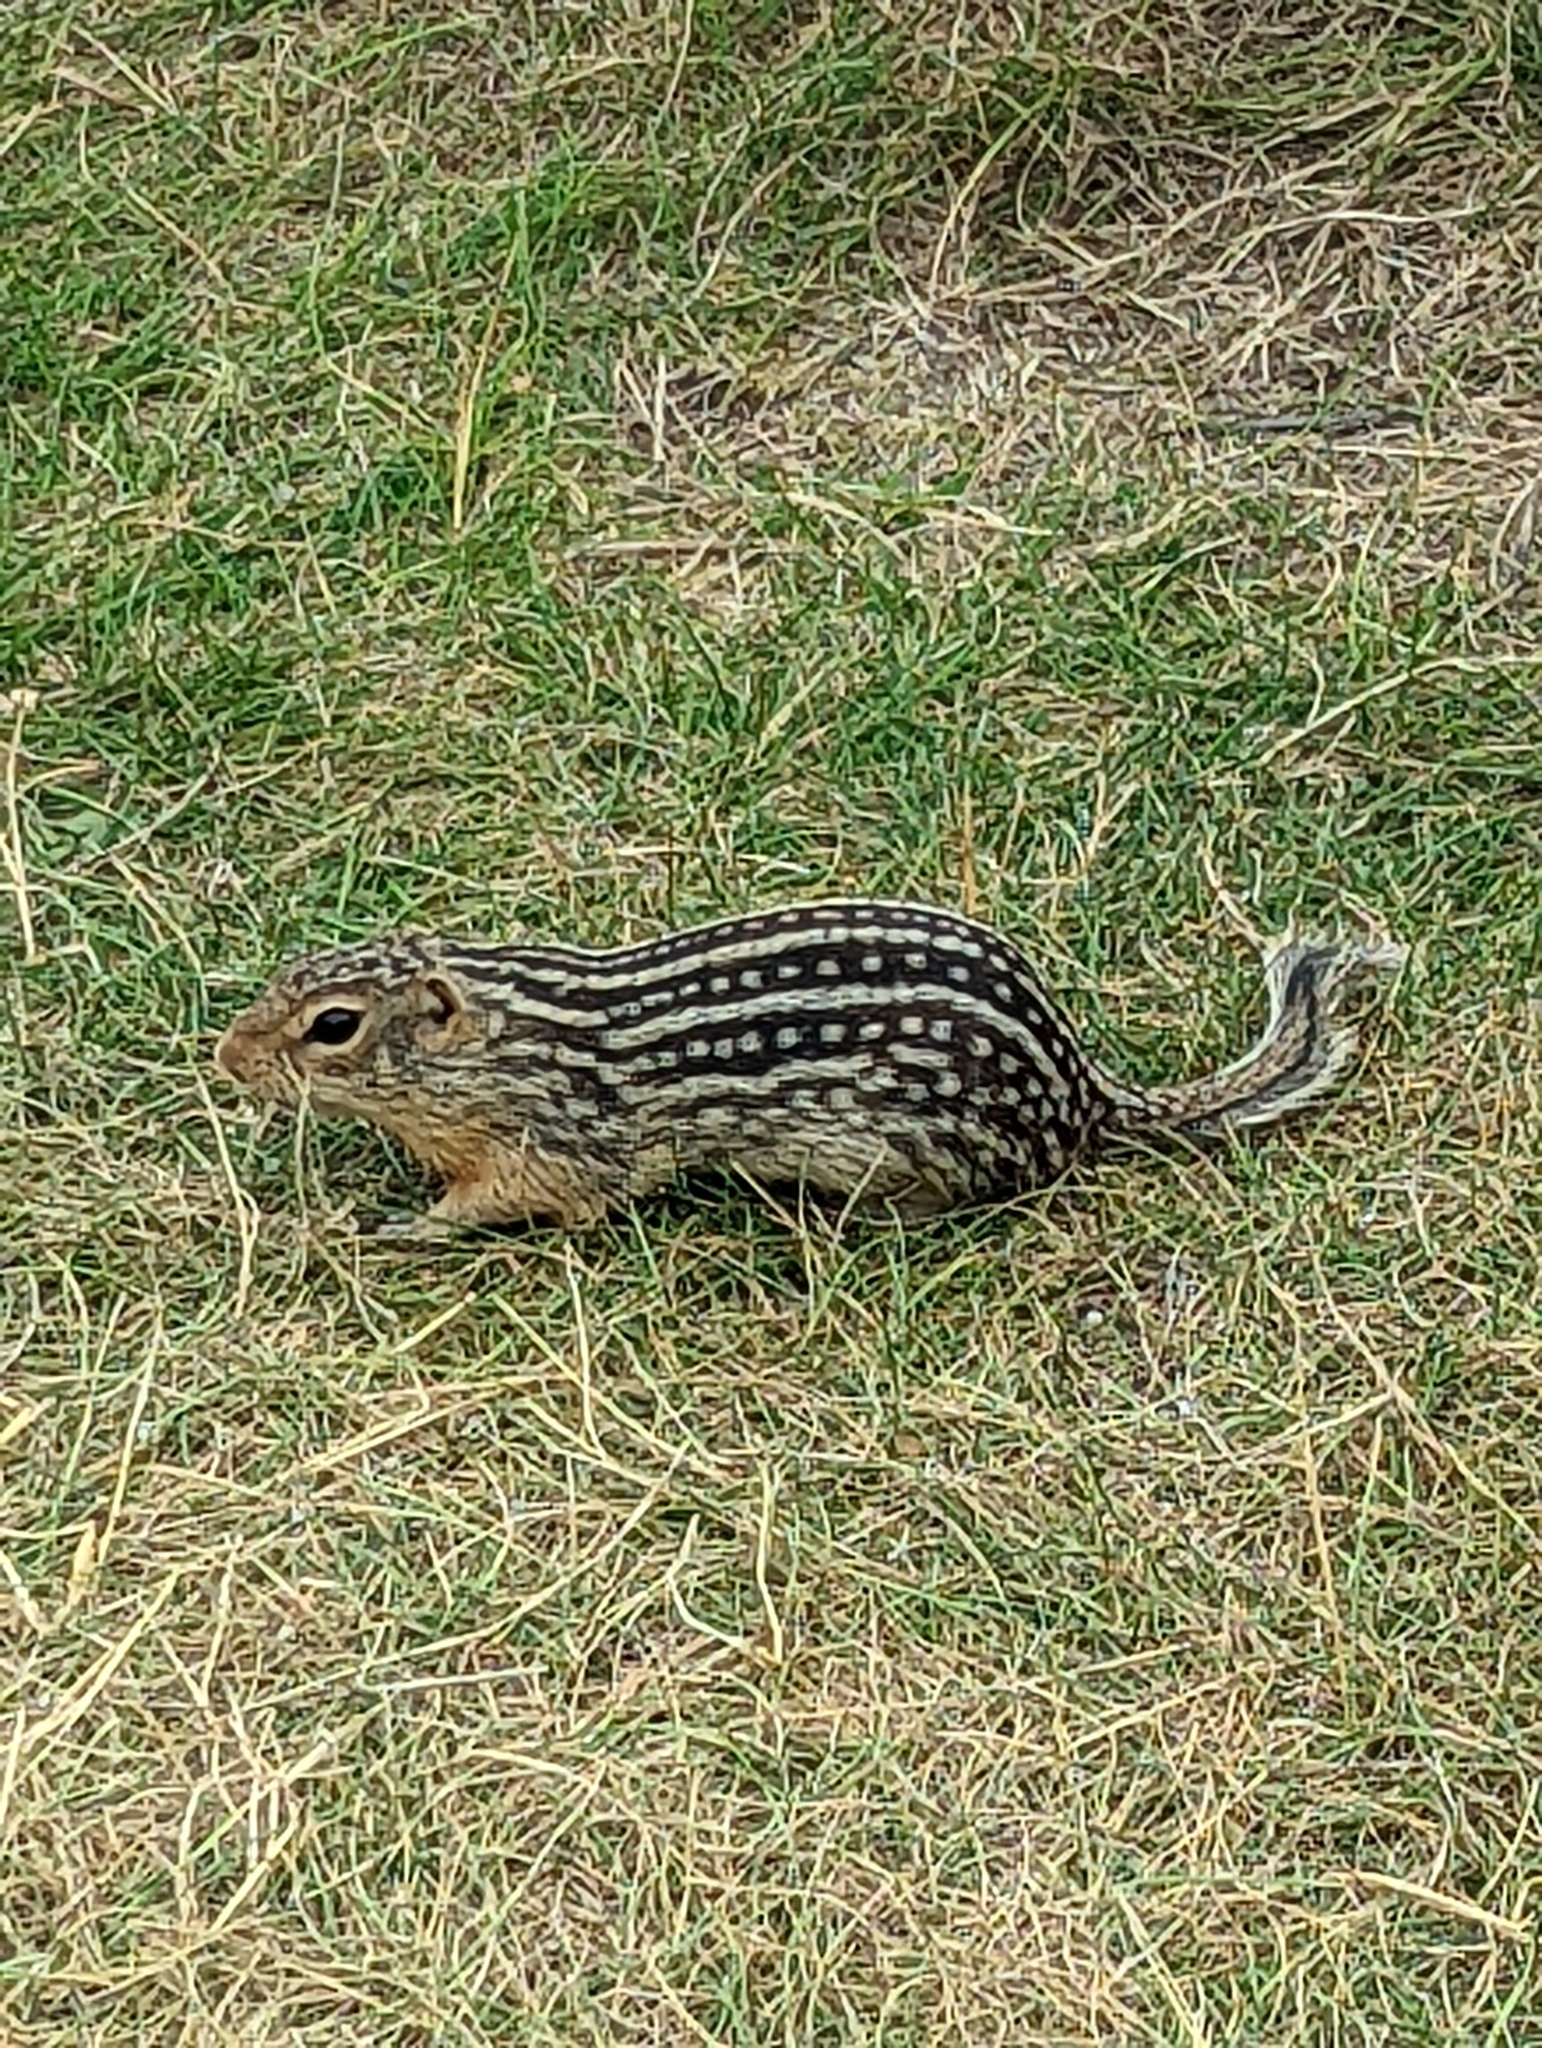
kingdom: Animalia
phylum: Chordata
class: Mammalia
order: Rodentia
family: Sciuridae
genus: Ictidomys
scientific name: Ictidomys tridecemlineatus
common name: Thirteen-lined ground squirrel
